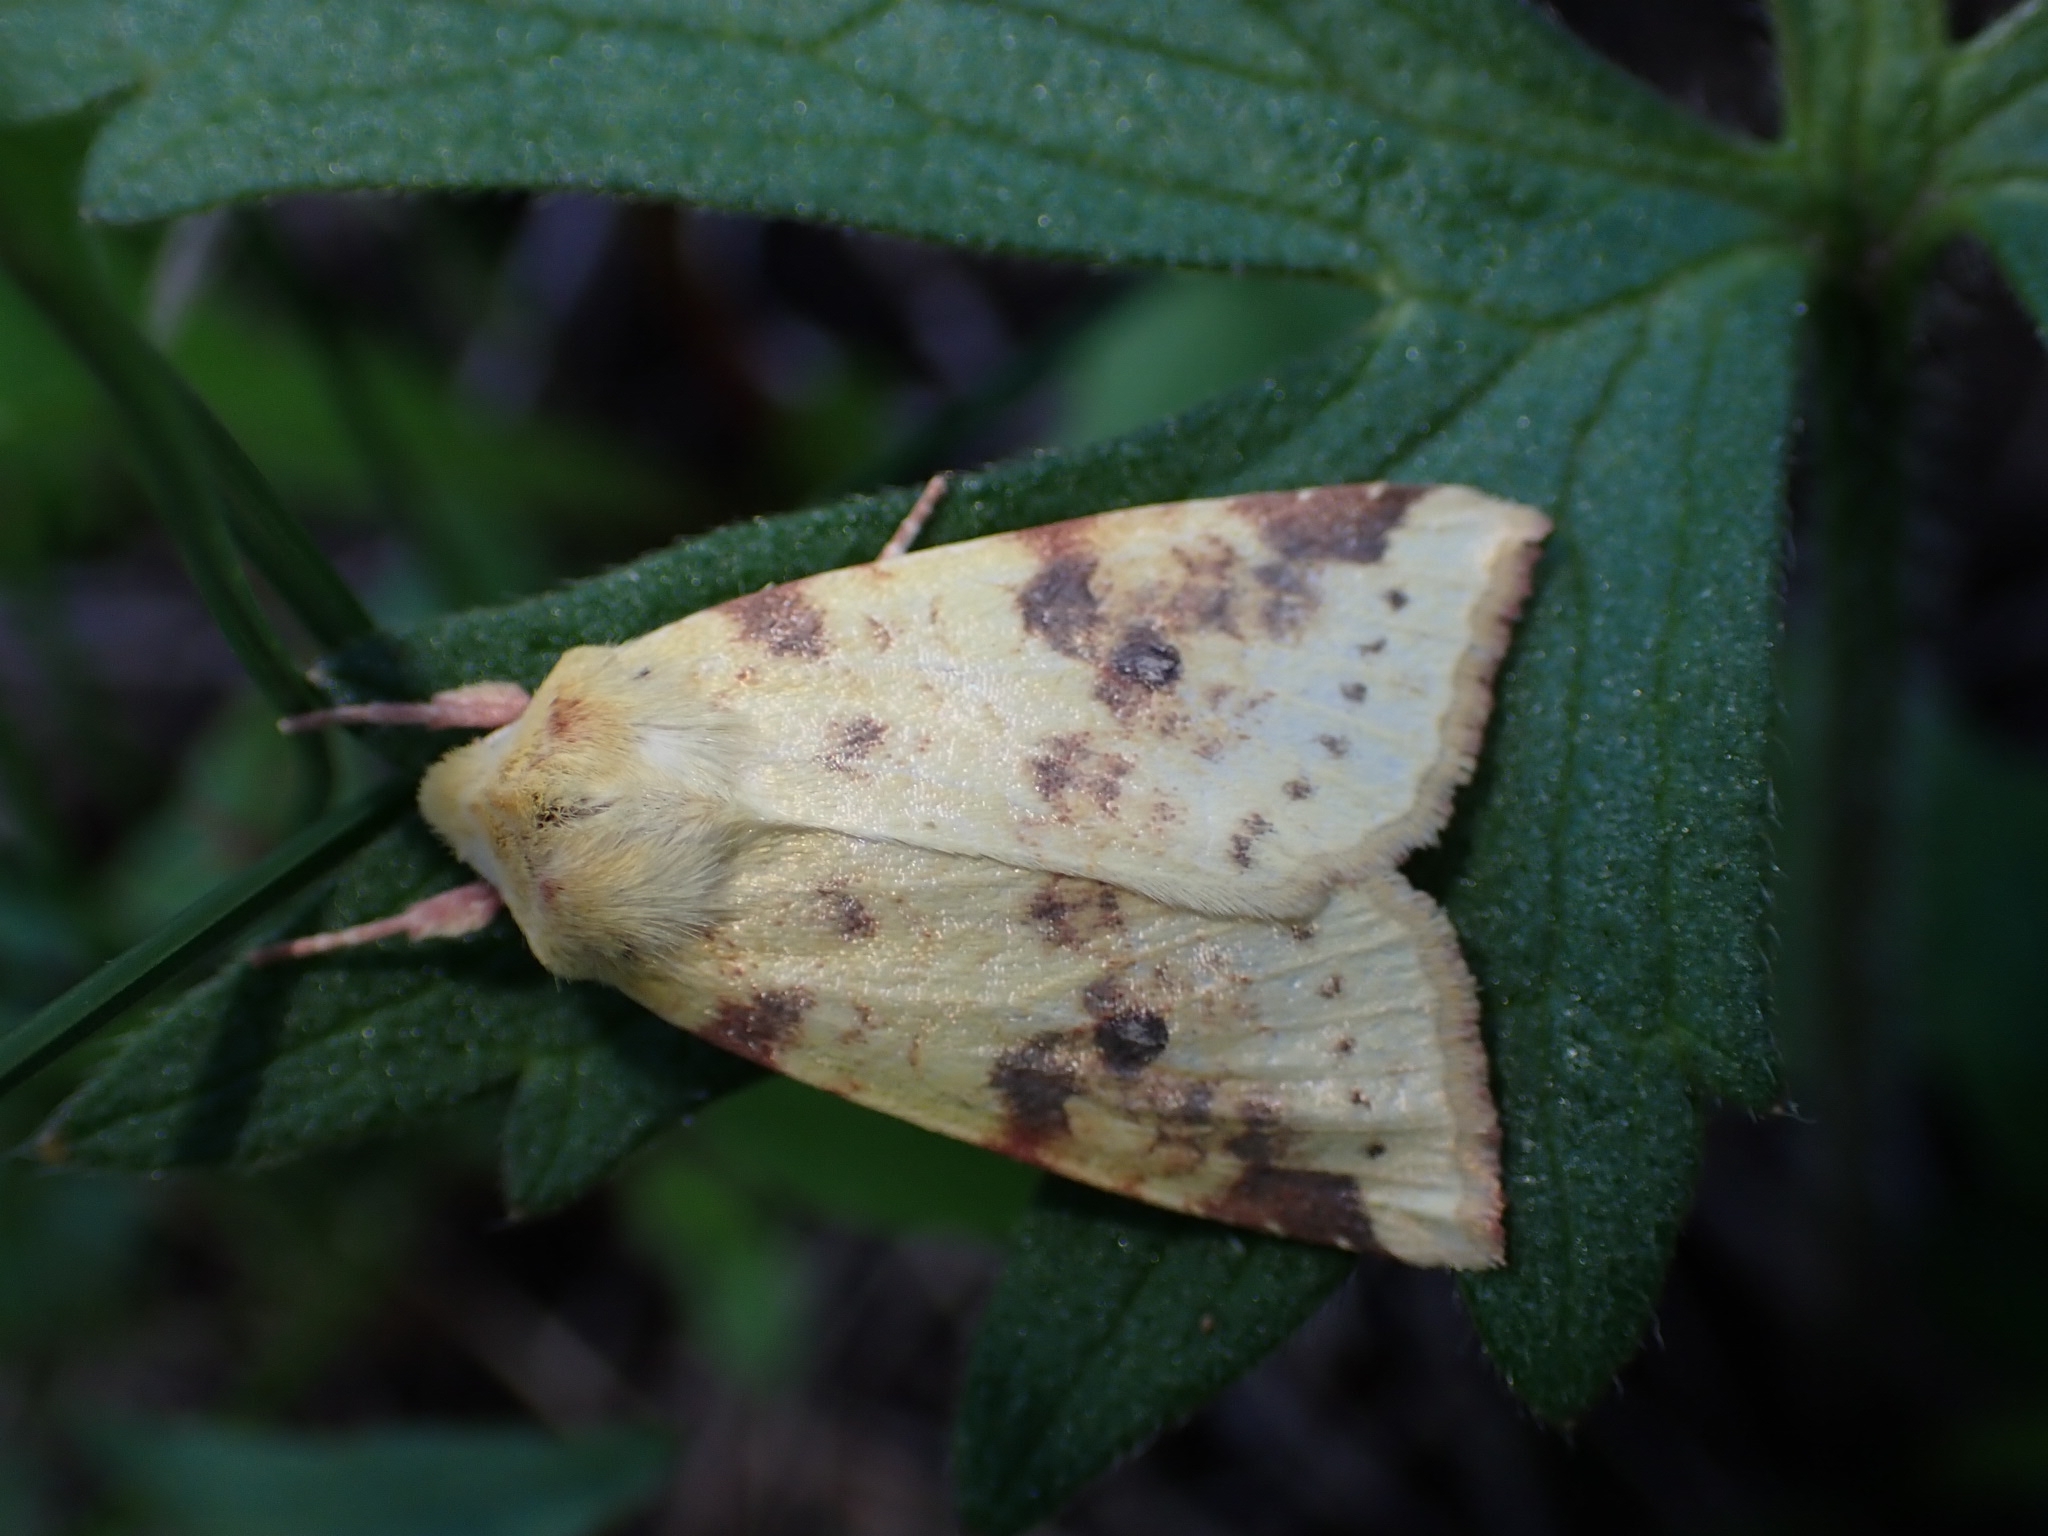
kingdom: Animalia
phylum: Arthropoda
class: Insecta
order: Lepidoptera
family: Noctuidae
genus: Xanthia
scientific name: Xanthia icteritia
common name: The sallow
